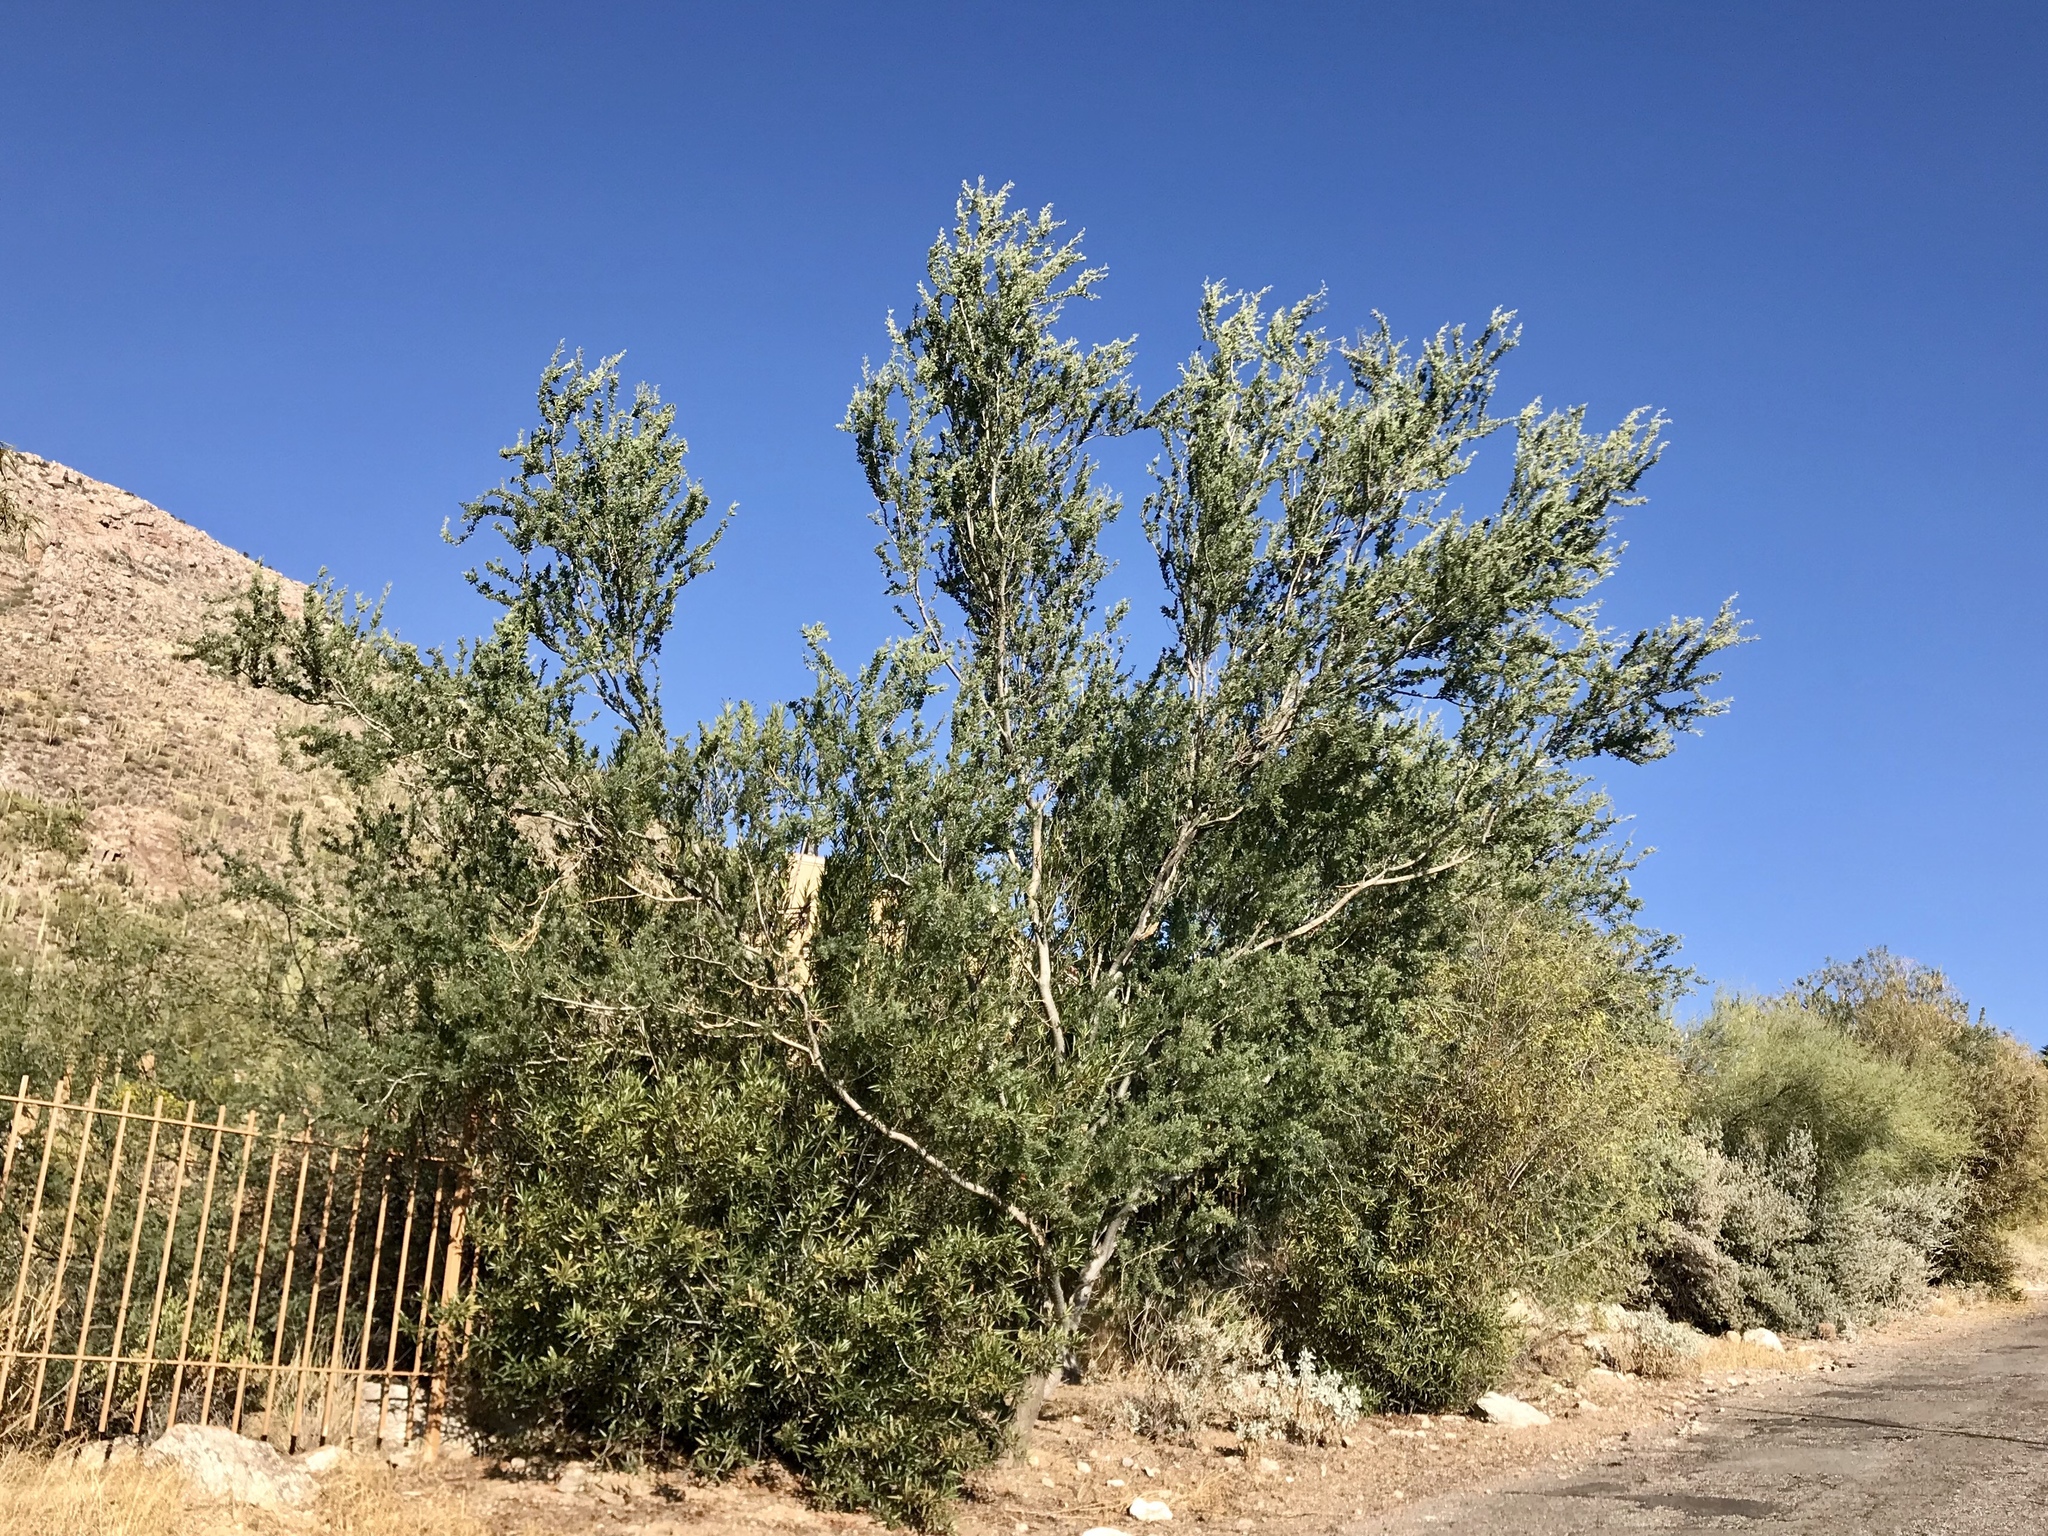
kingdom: Plantae
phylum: Tracheophyta
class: Magnoliopsida
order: Fabales
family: Fabaceae
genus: Olneya
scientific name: Olneya tesota
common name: Desert ironwood
